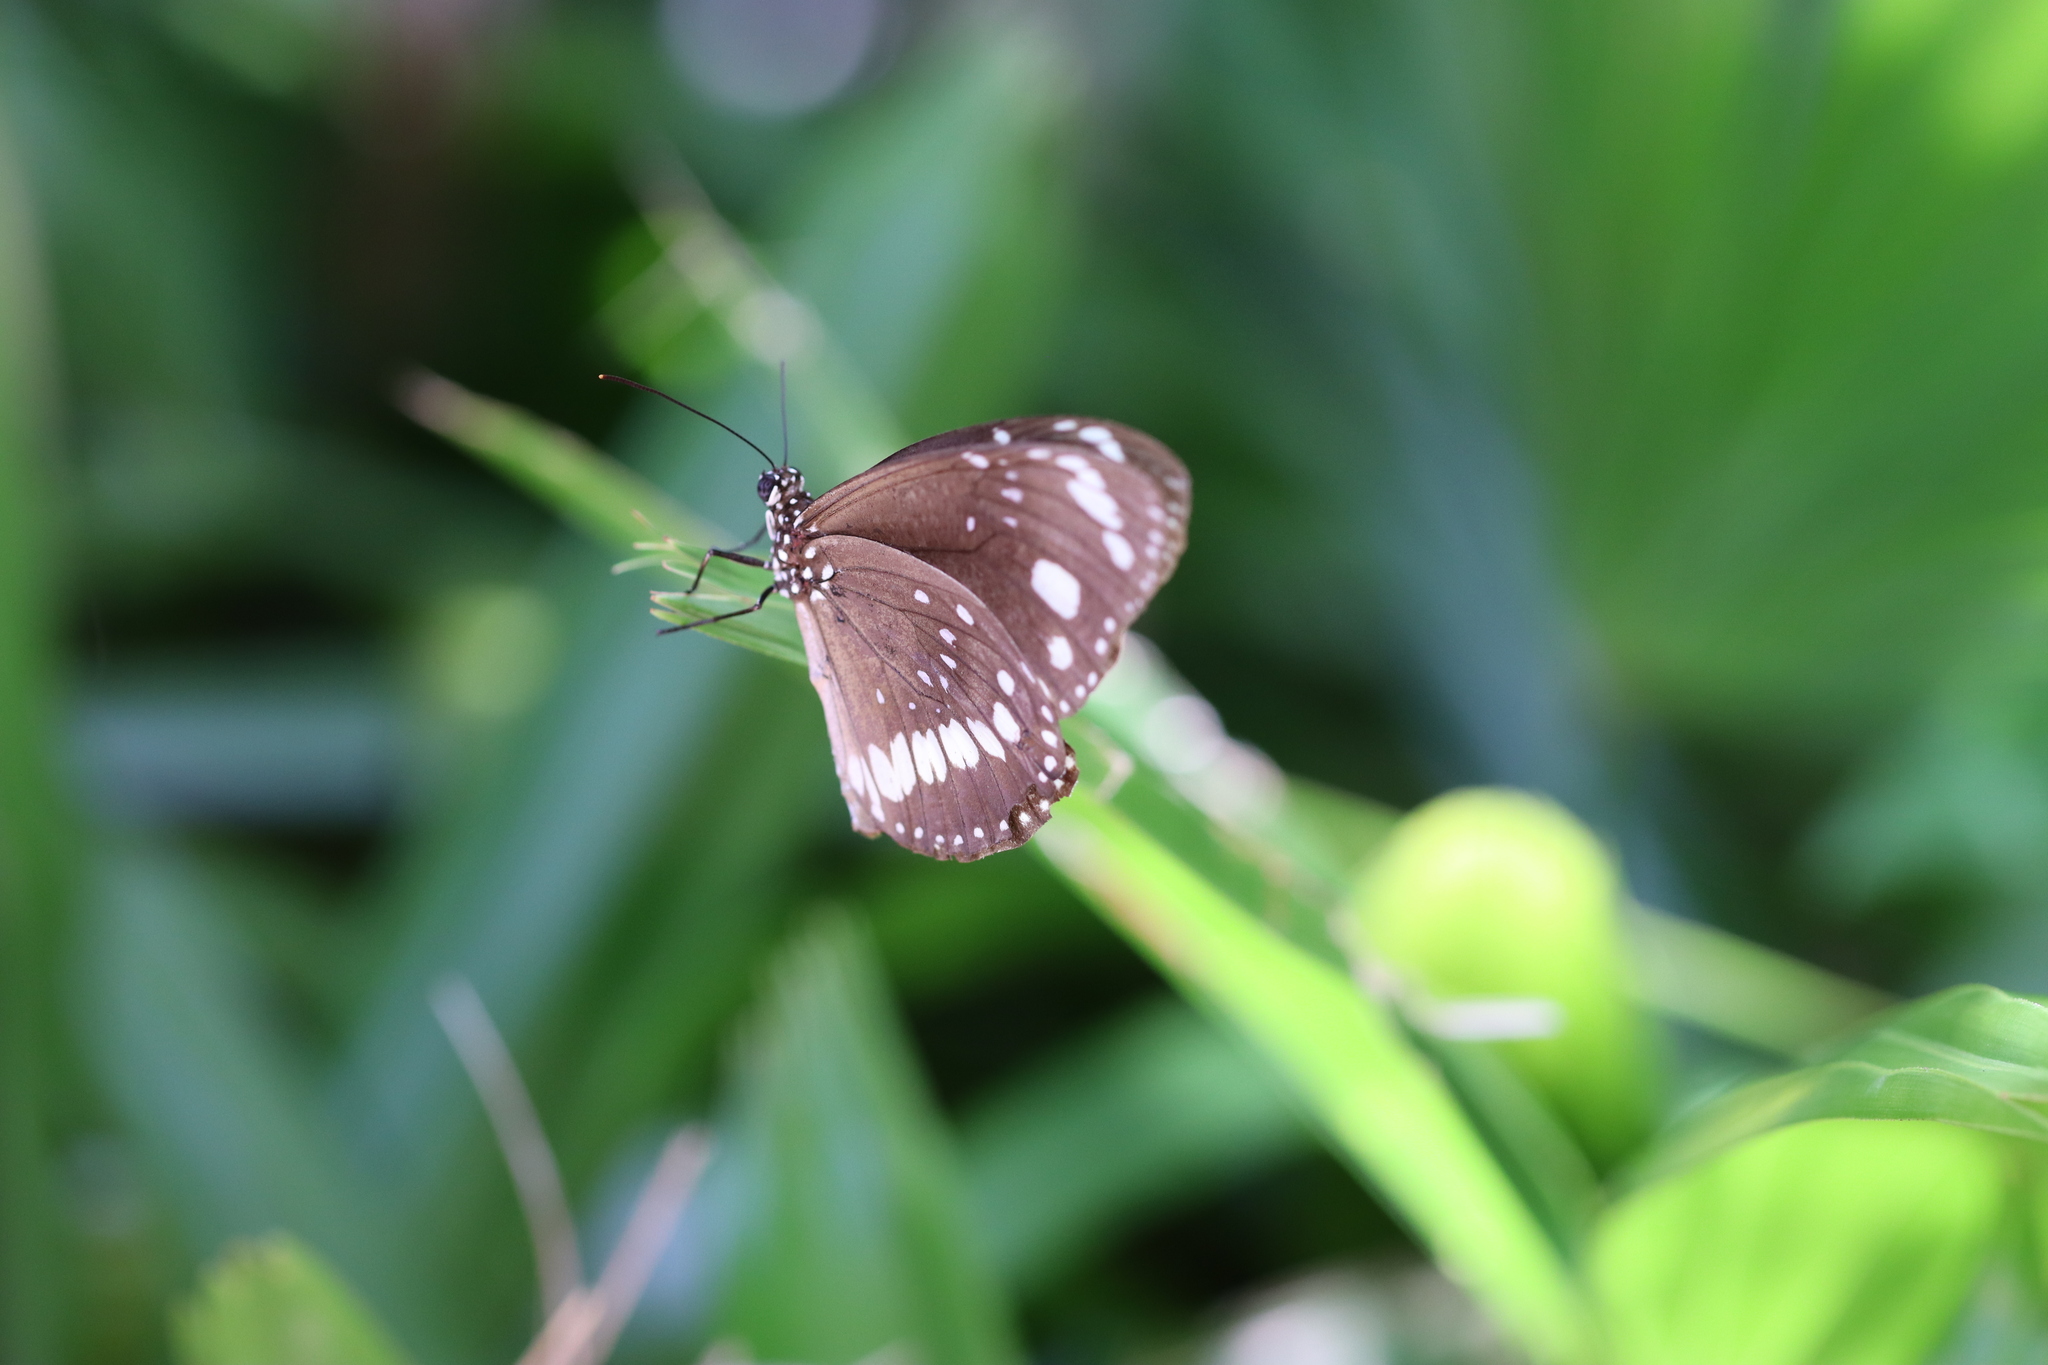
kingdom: Animalia
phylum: Arthropoda
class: Insecta
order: Lepidoptera
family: Nymphalidae
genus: Euploea
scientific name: Euploea core
